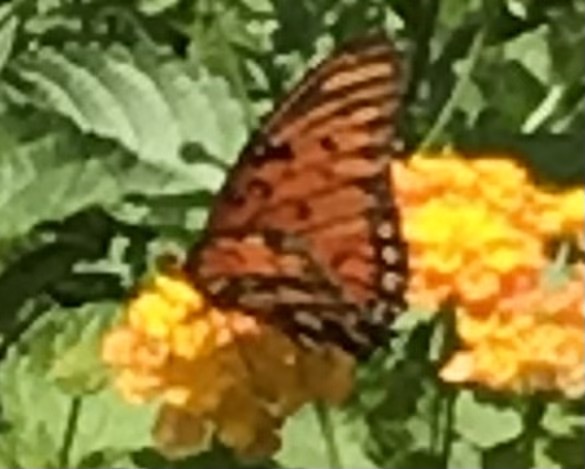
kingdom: Animalia
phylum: Arthropoda
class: Insecta
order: Lepidoptera
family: Nymphalidae
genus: Dione
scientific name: Dione vanillae
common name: Gulf fritillary
